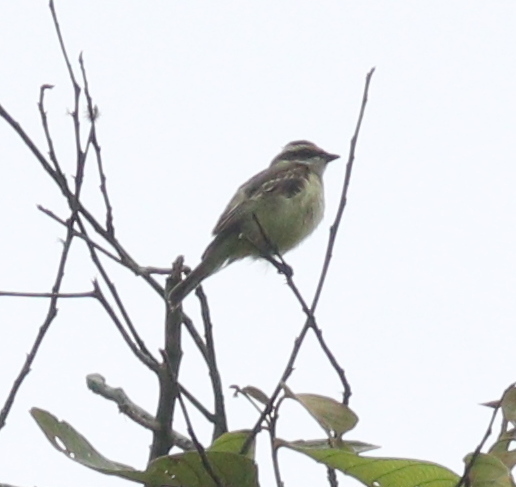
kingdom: Animalia
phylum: Chordata
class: Aves
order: Passeriformes
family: Tyrannidae
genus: Legatus
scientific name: Legatus leucophaius
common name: Piratic flycatcher
